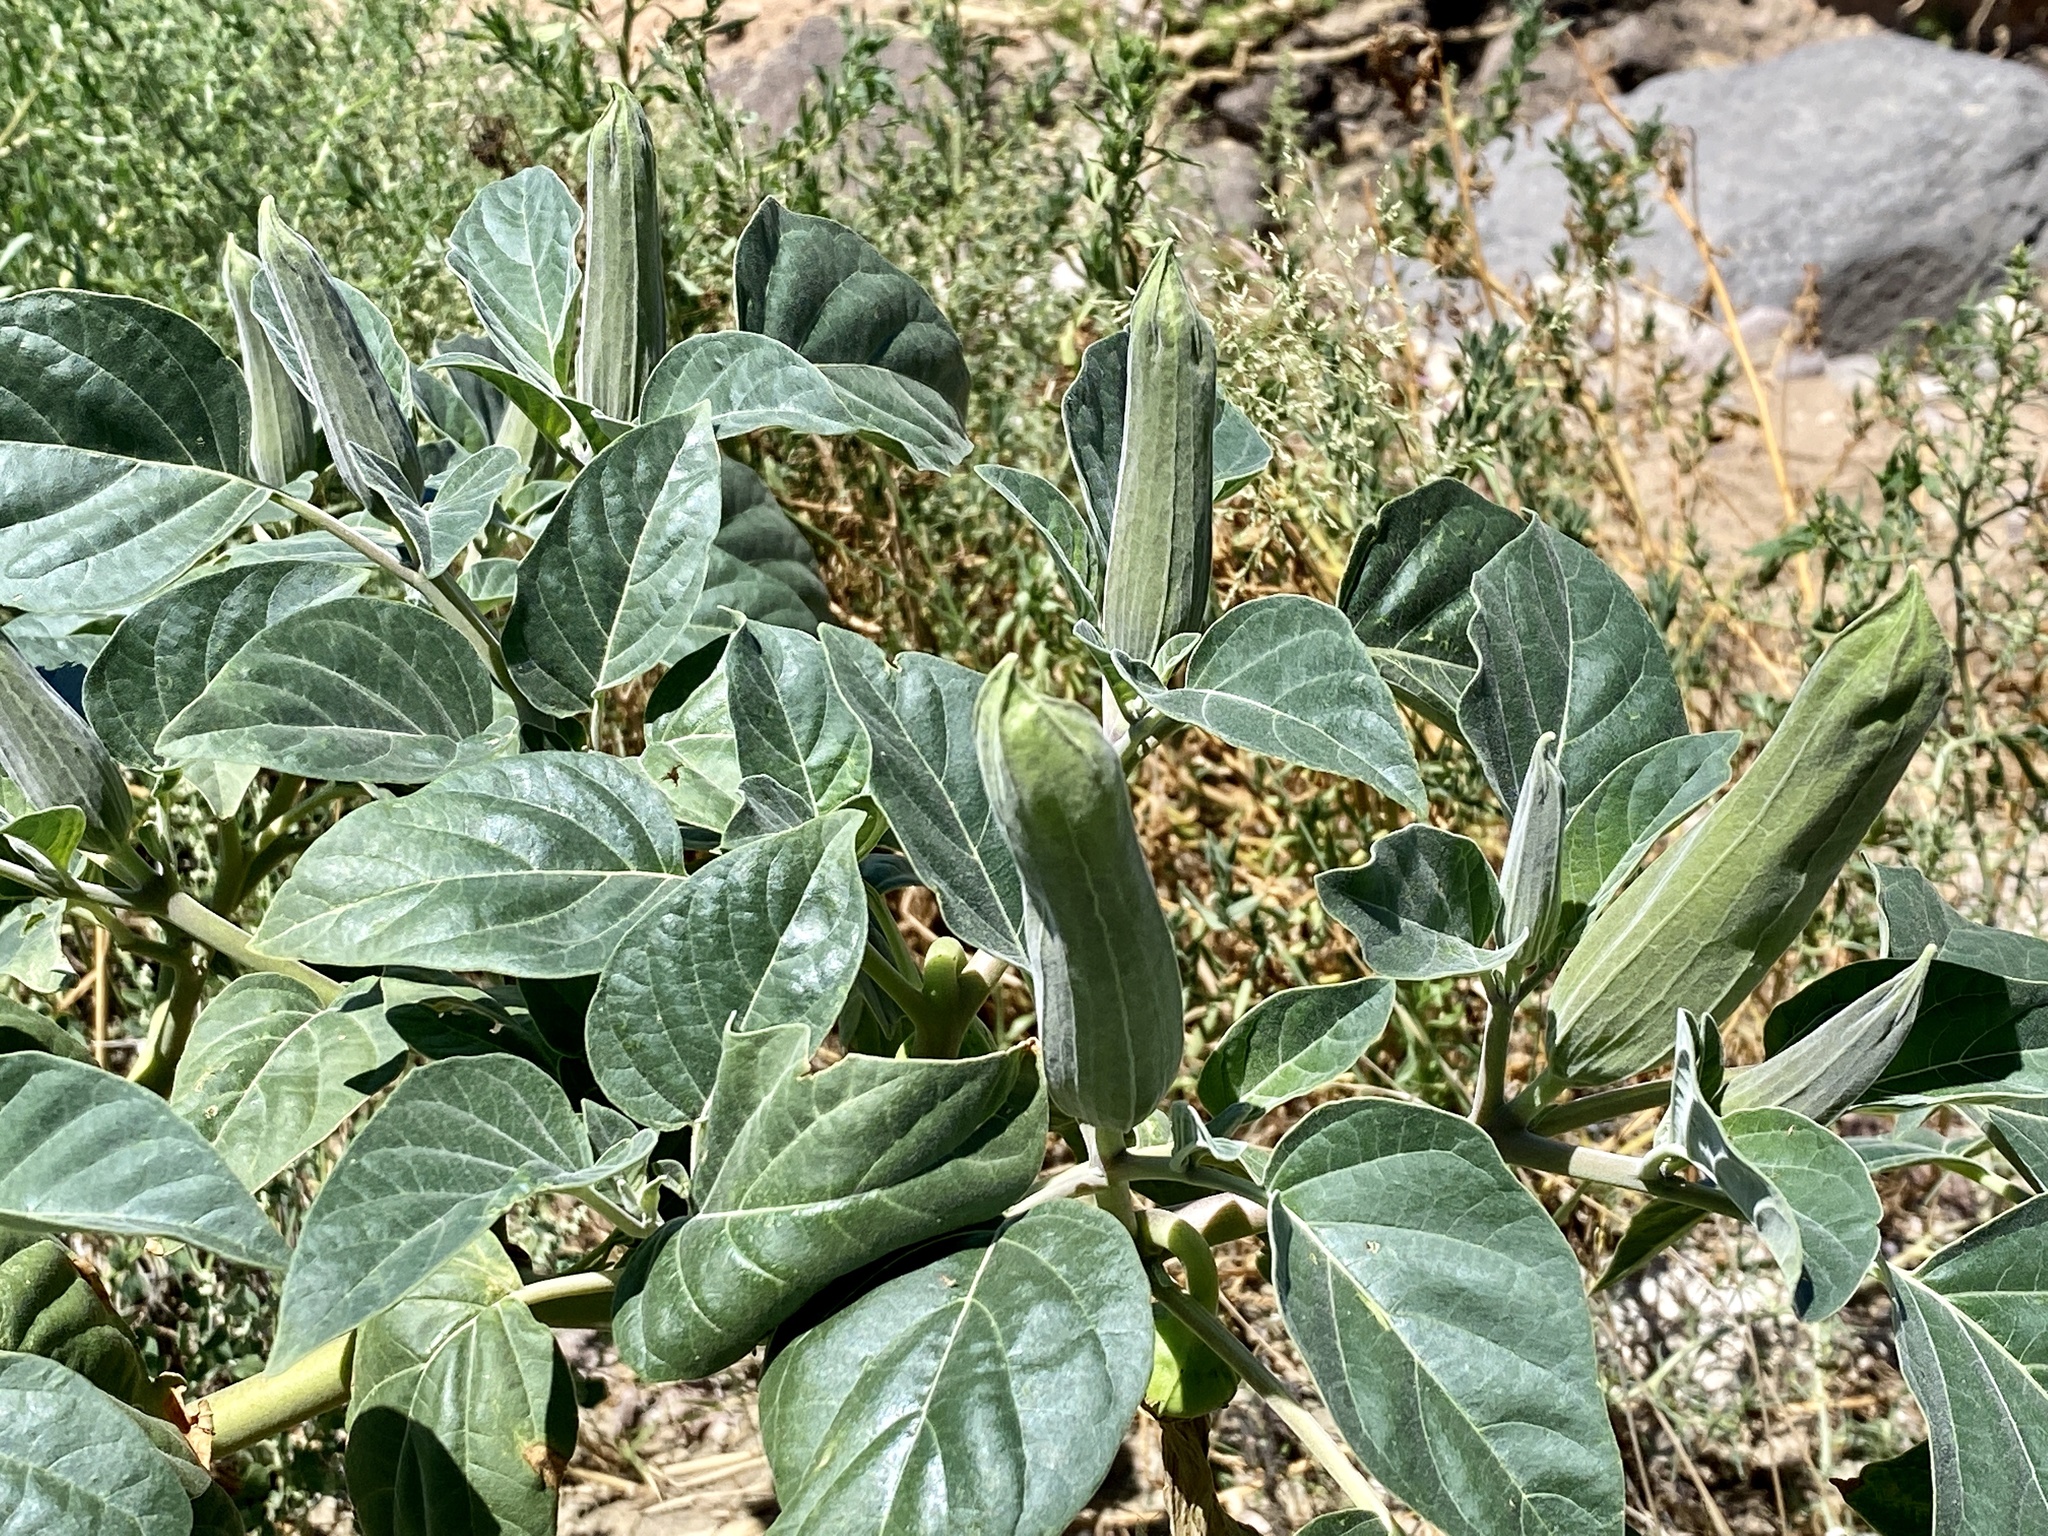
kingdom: Plantae
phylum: Tracheophyta
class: Magnoliopsida
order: Solanales
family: Solanaceae
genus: Datura
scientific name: Datura wrightii
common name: Sacred thorn-apple
